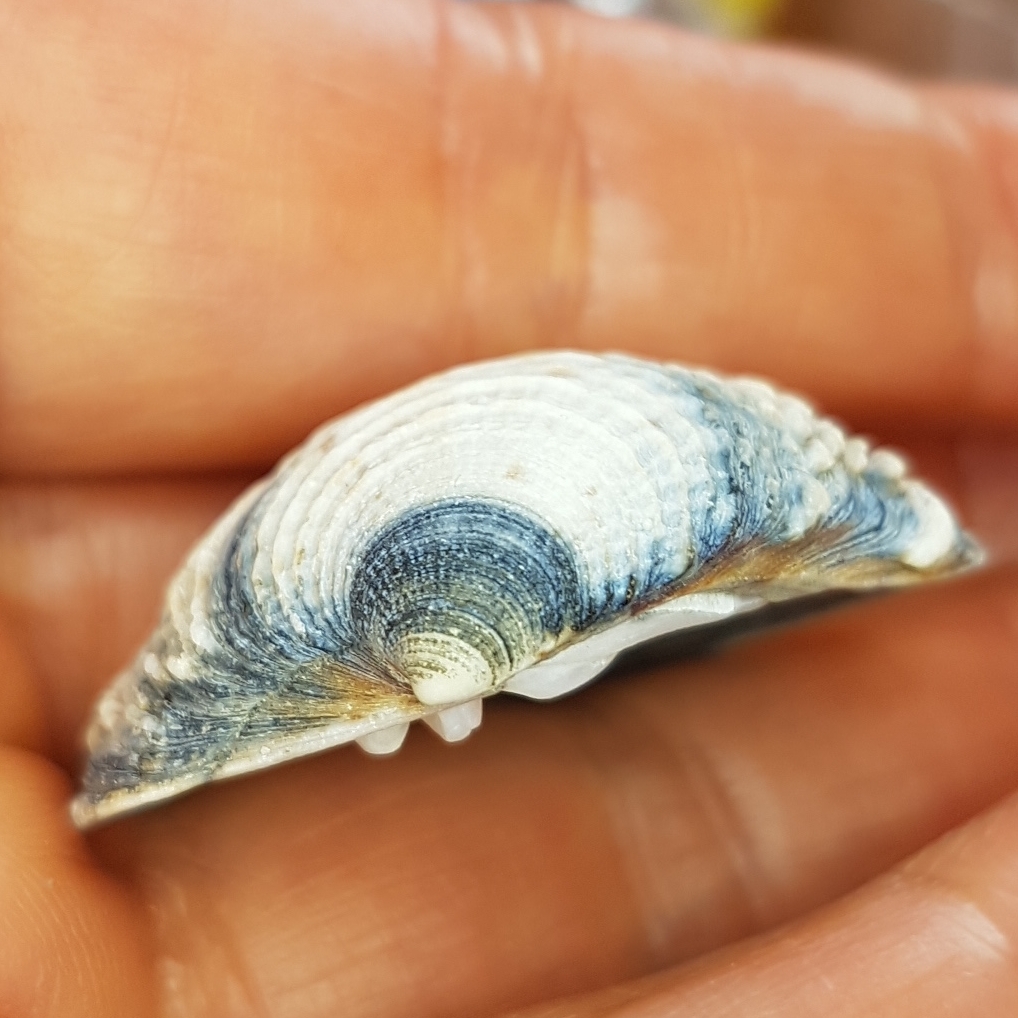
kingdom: Animalia
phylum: Mollusca
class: Bivalvia
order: Venerida
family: Veneridae
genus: Venus
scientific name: Venus verrucosa
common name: Warty venus
